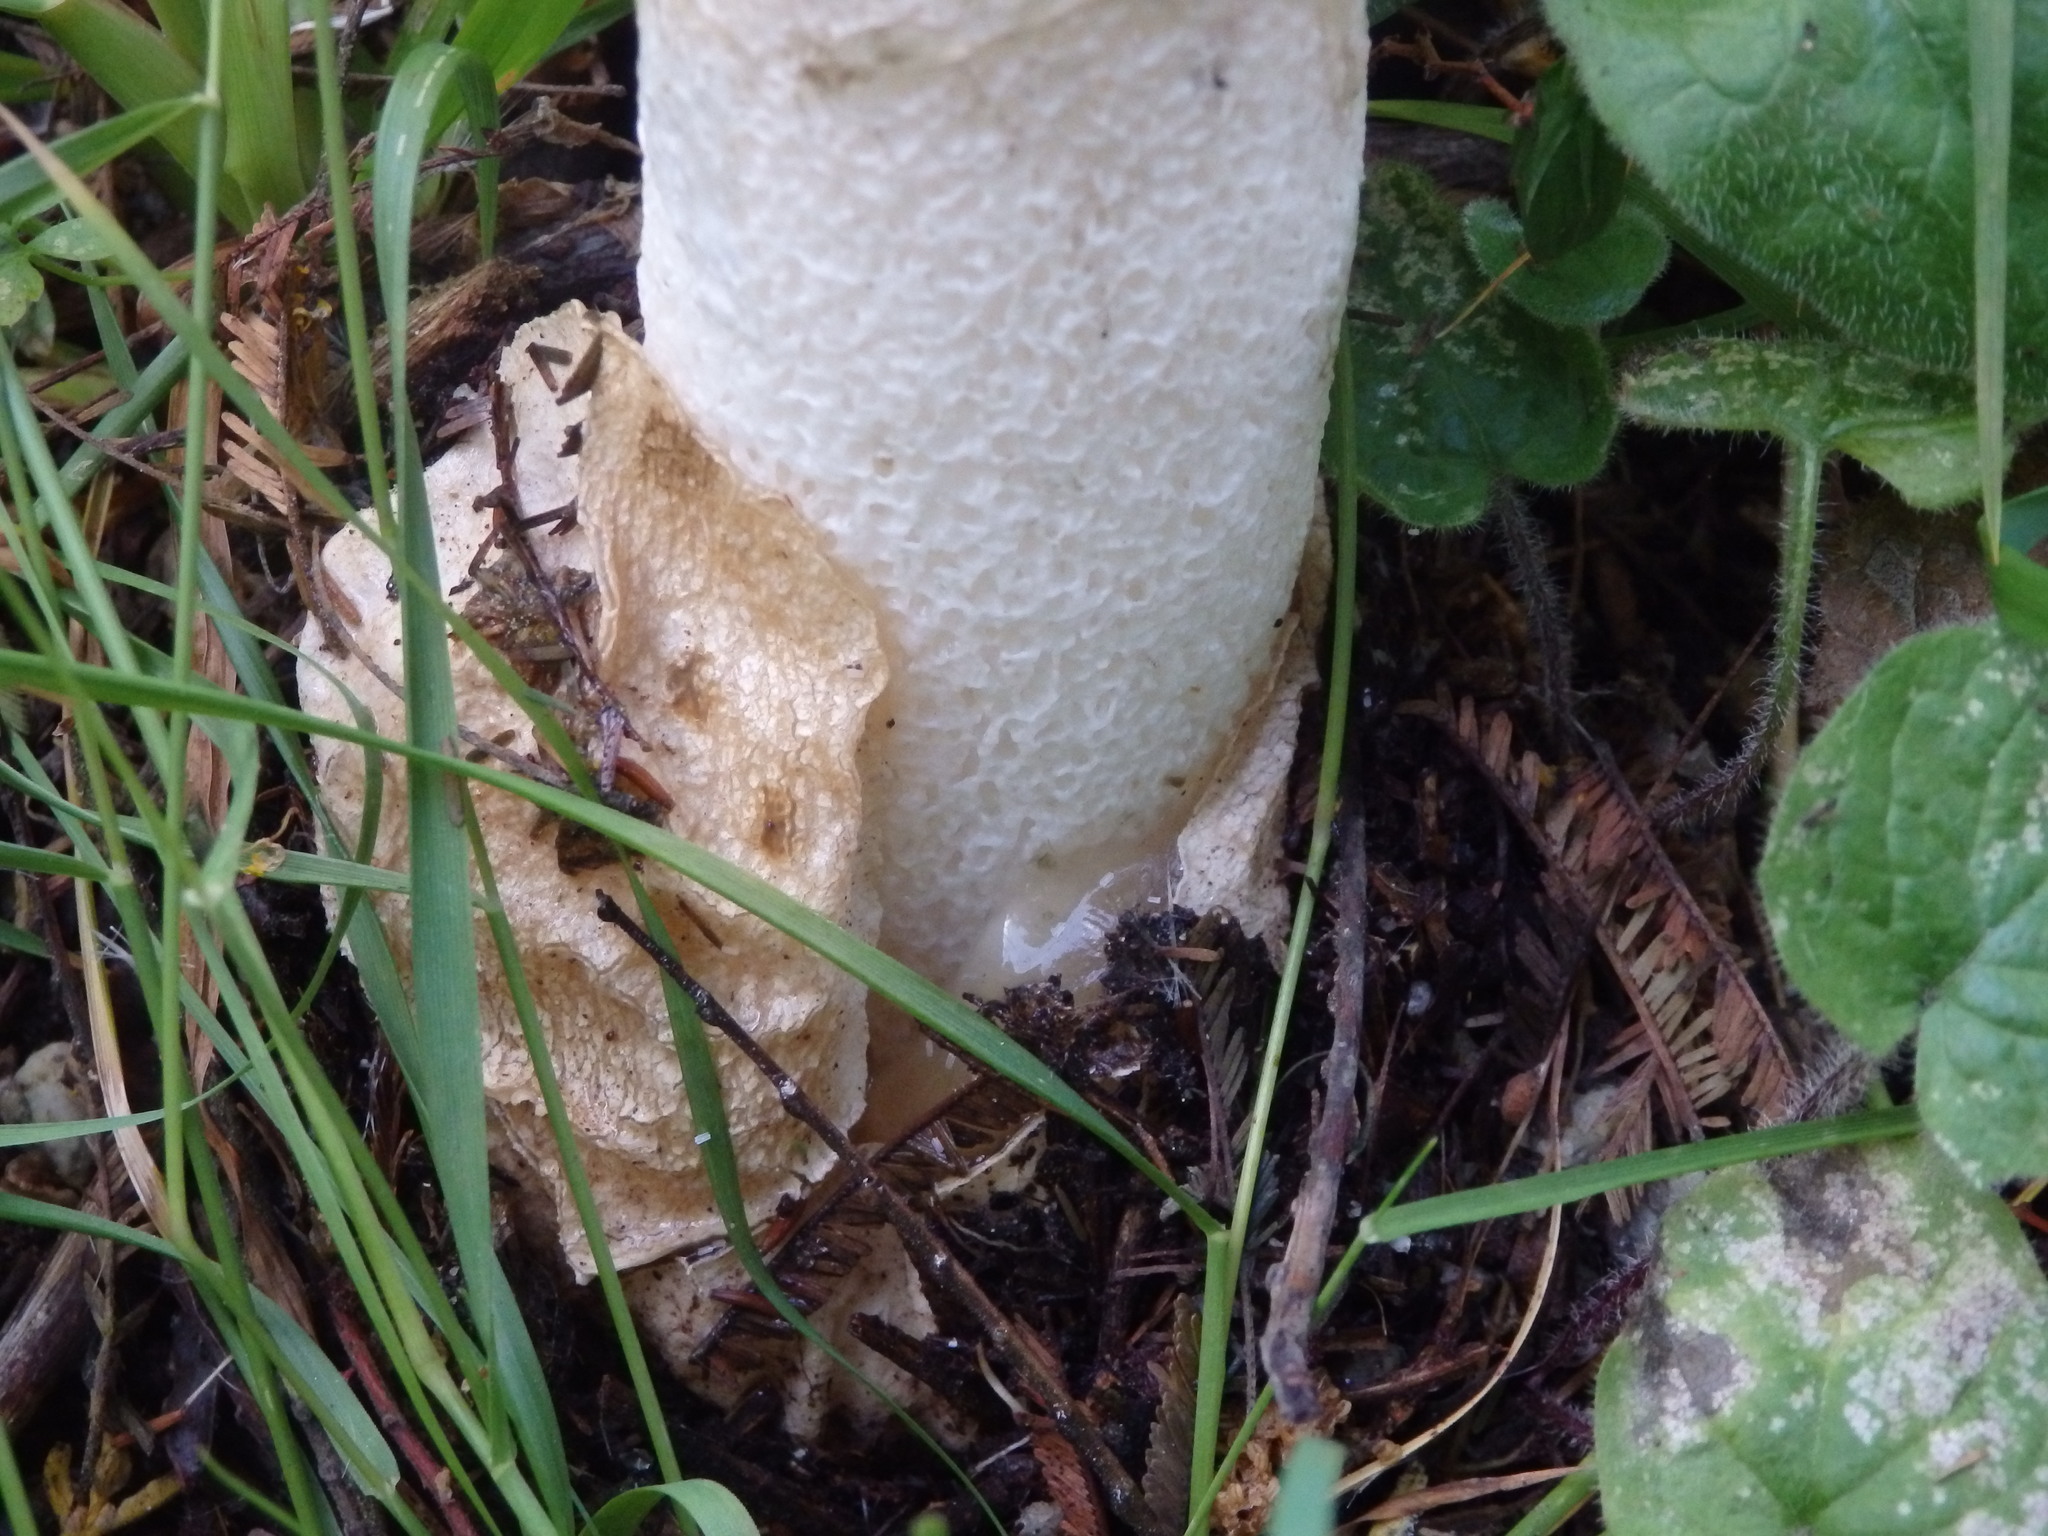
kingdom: Fungi
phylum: Basidiomycota
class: Agaricomycetes
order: Phallales
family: Phallaceae
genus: Phallus
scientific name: Phallus impudicus
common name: Common stinkhorn
